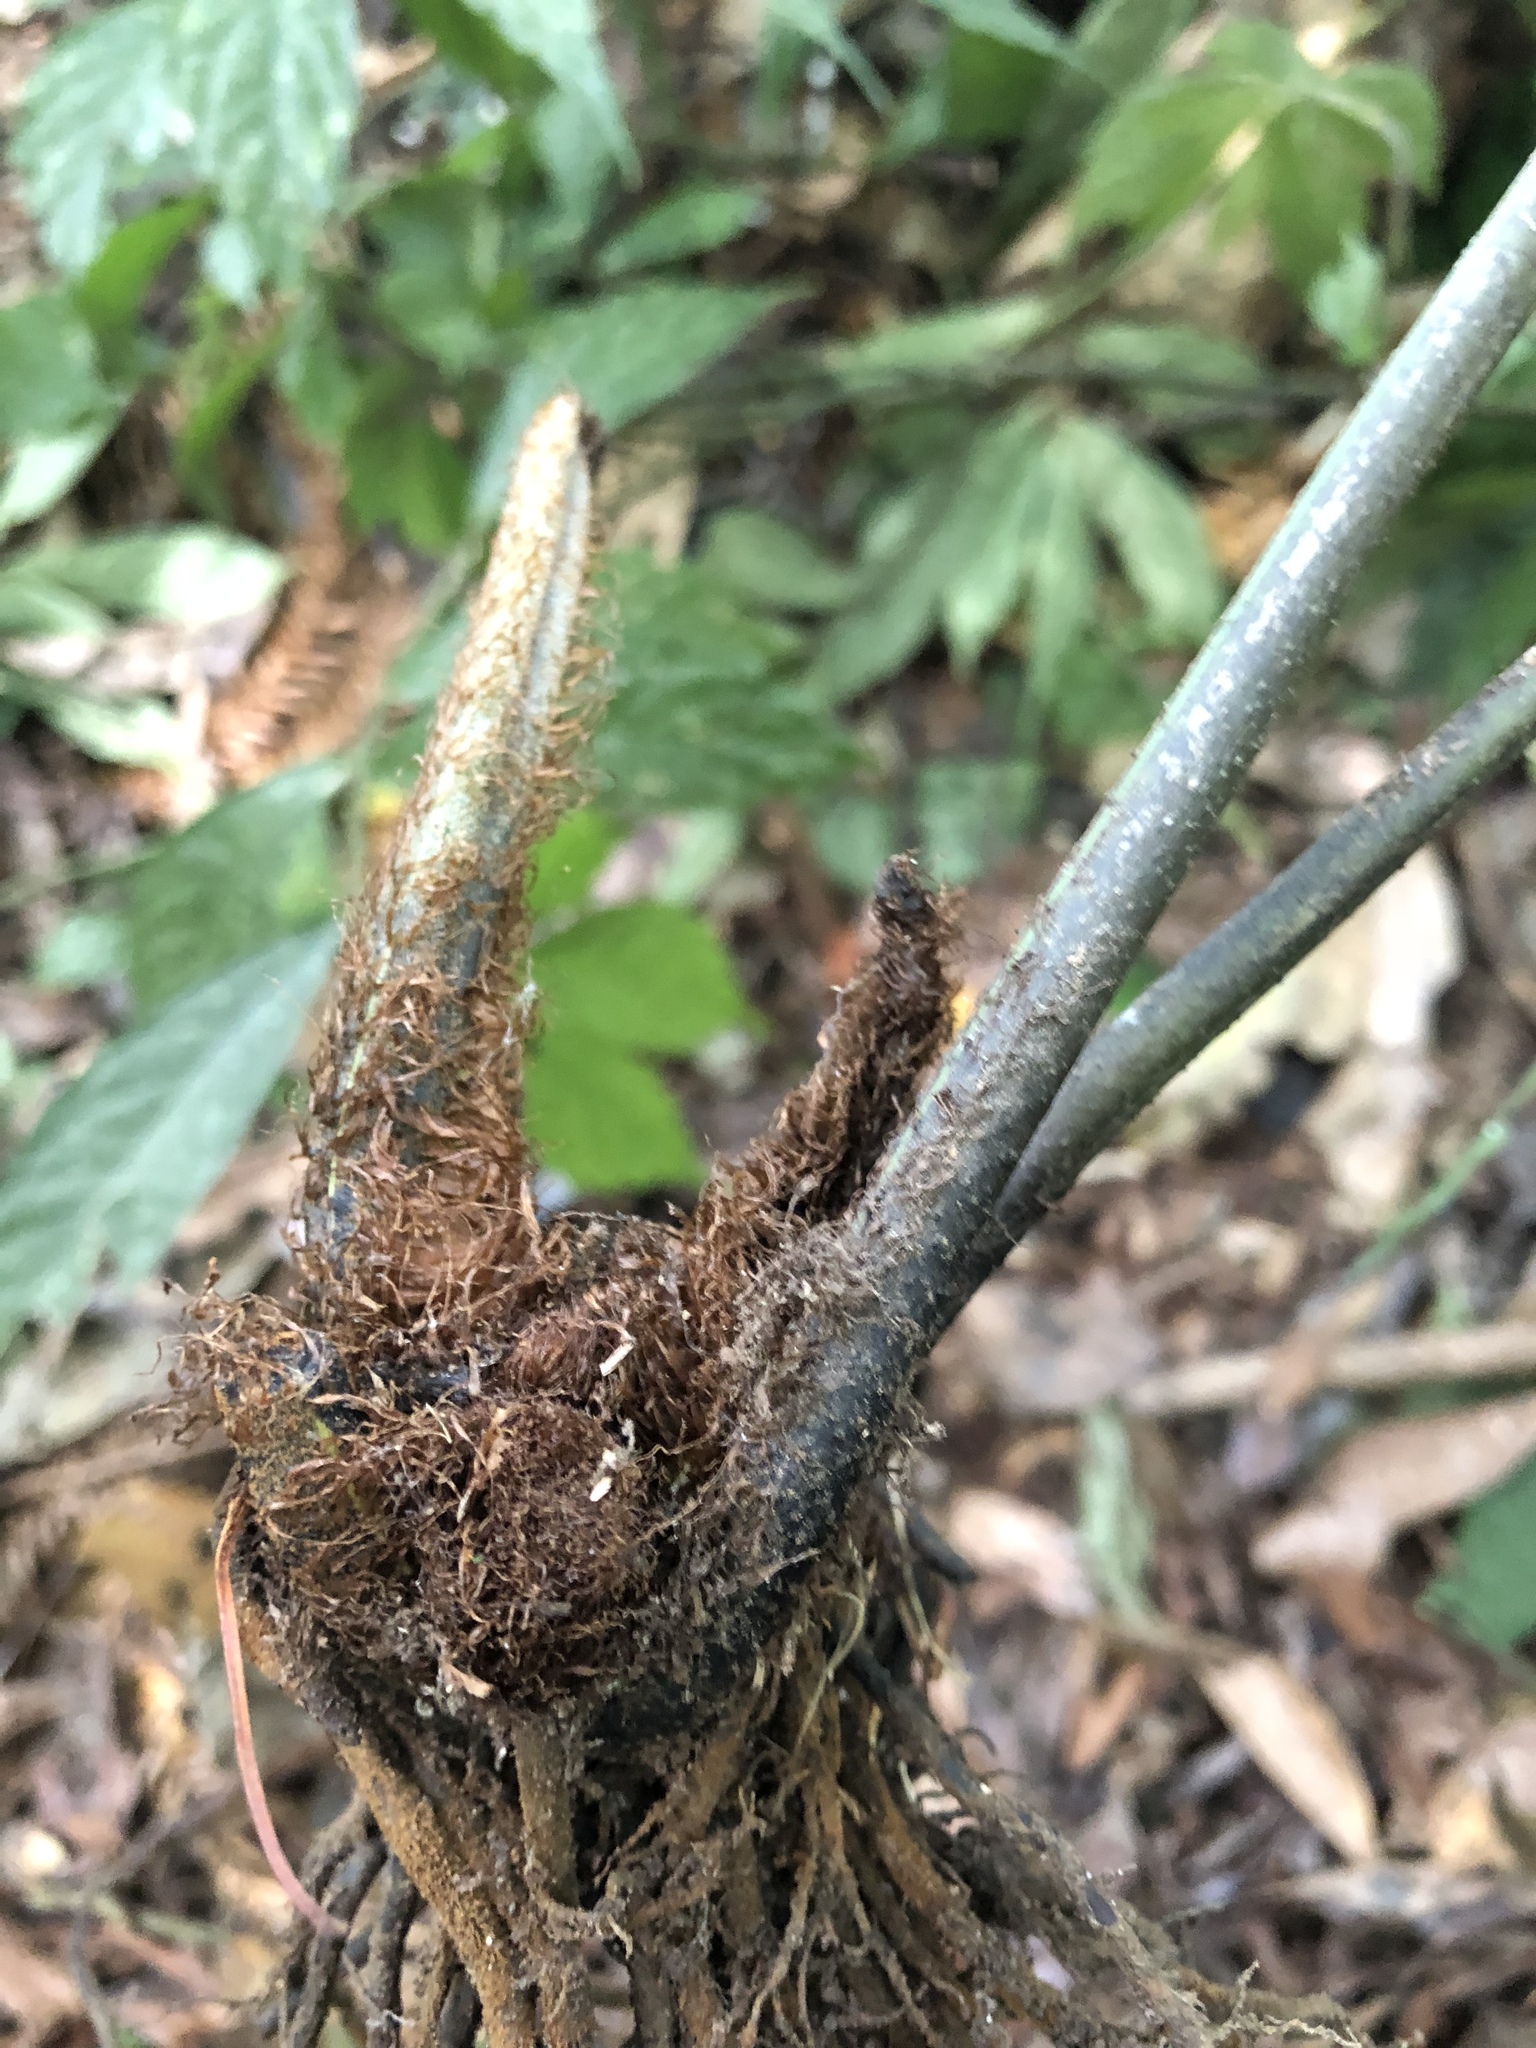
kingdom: Plantae
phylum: Tracheophyta
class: Polypodiopsida
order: Polypodiales
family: Athyriaceae
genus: Diplazium
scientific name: Diplazium dilatatum
